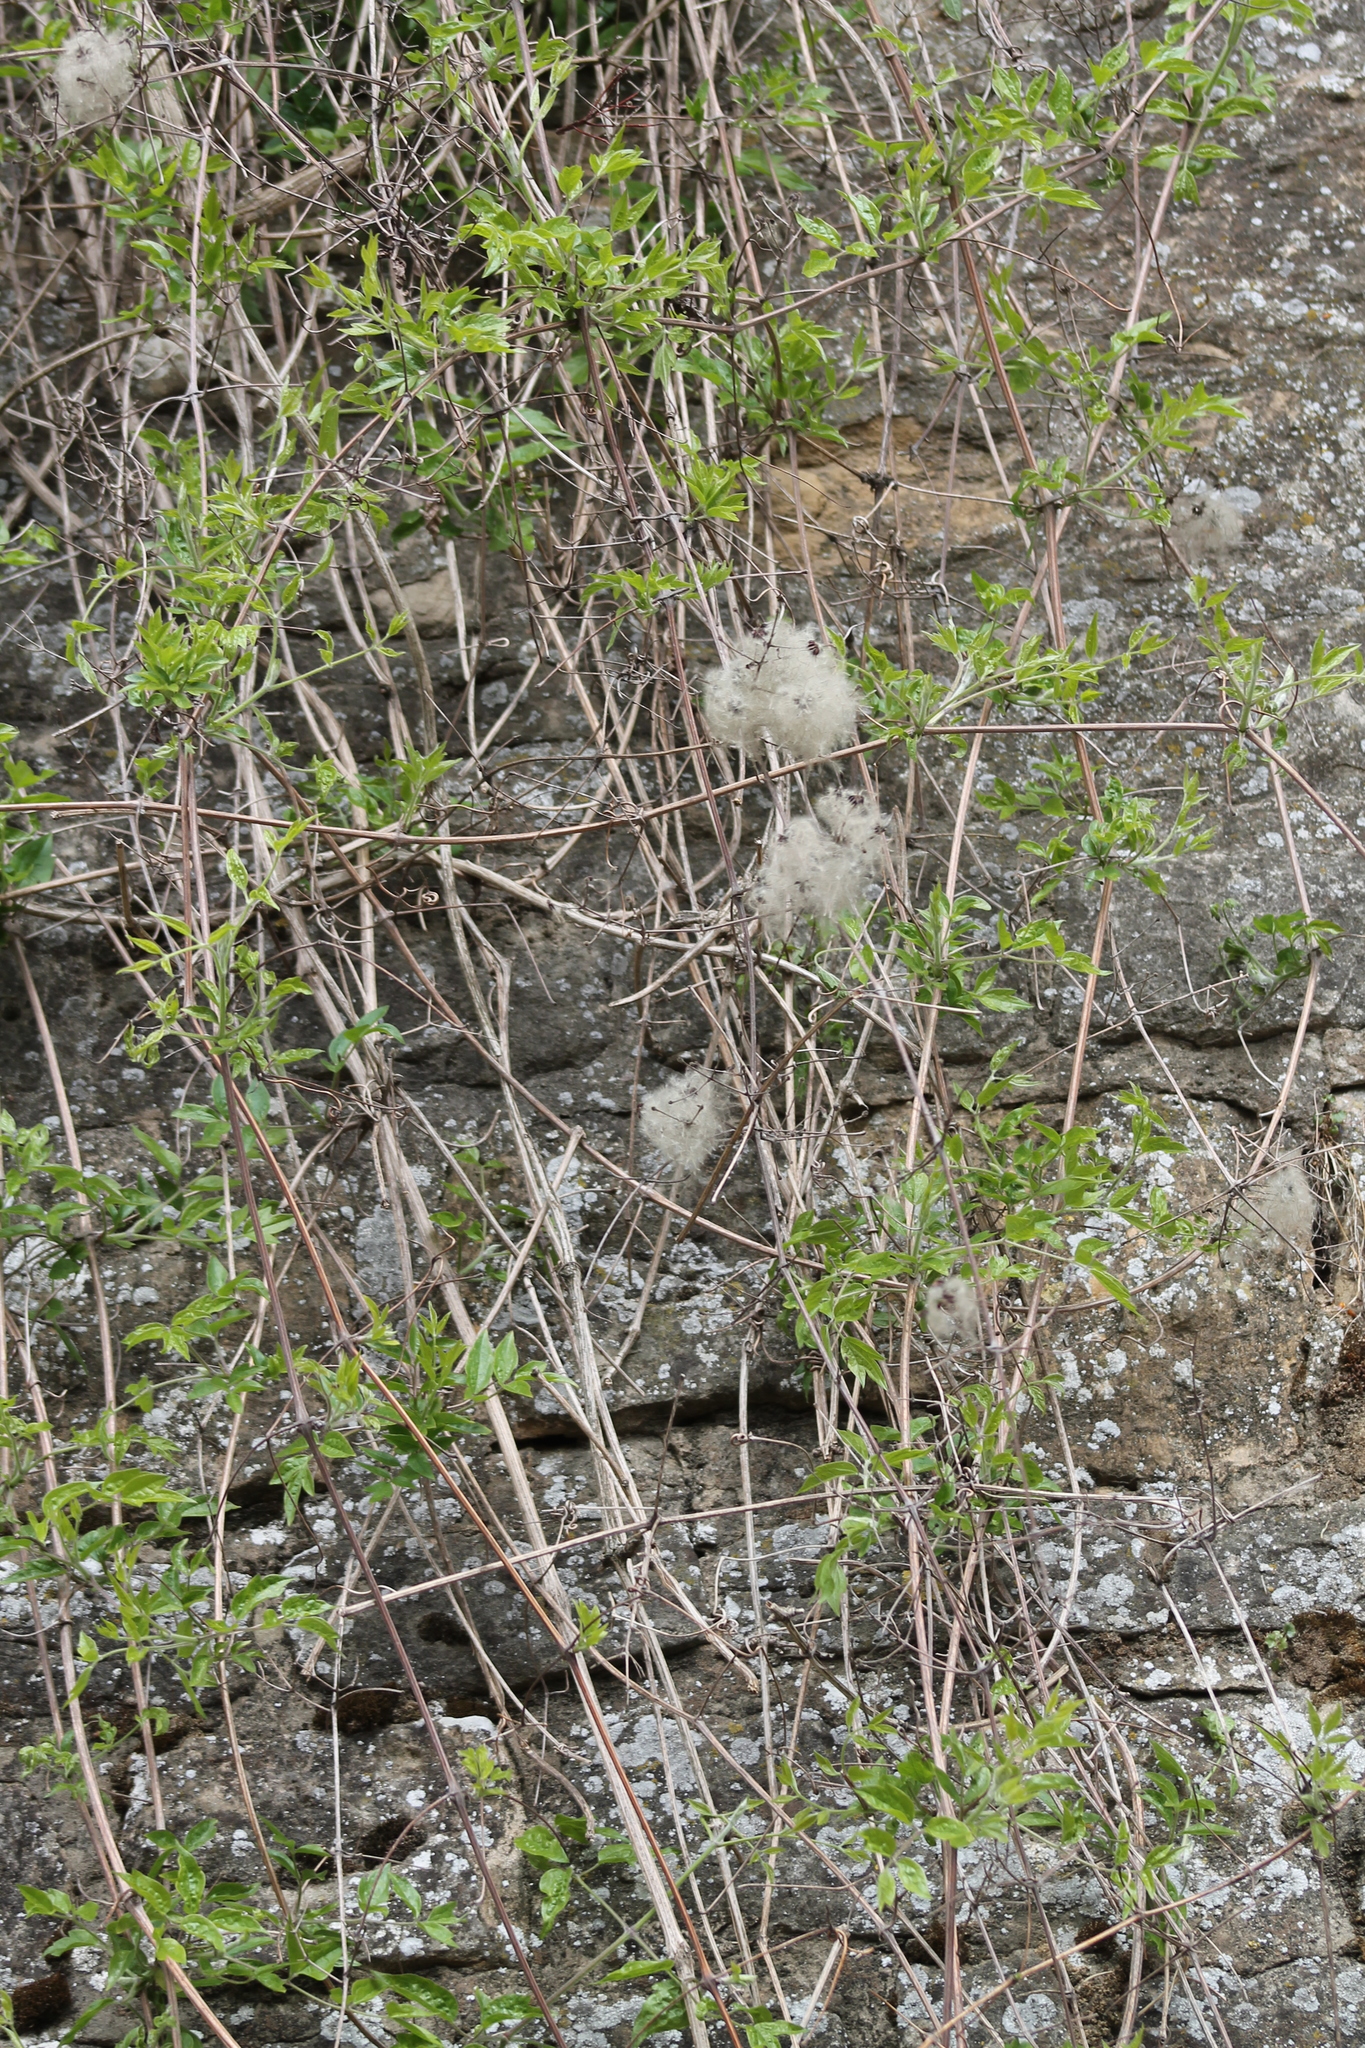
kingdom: Plantae
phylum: Tracheophyta
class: Magnoliopsida
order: Ranunculales
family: Ranunculaceae
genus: Clematis
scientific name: Clematis vitalba
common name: Evergreen clematis
